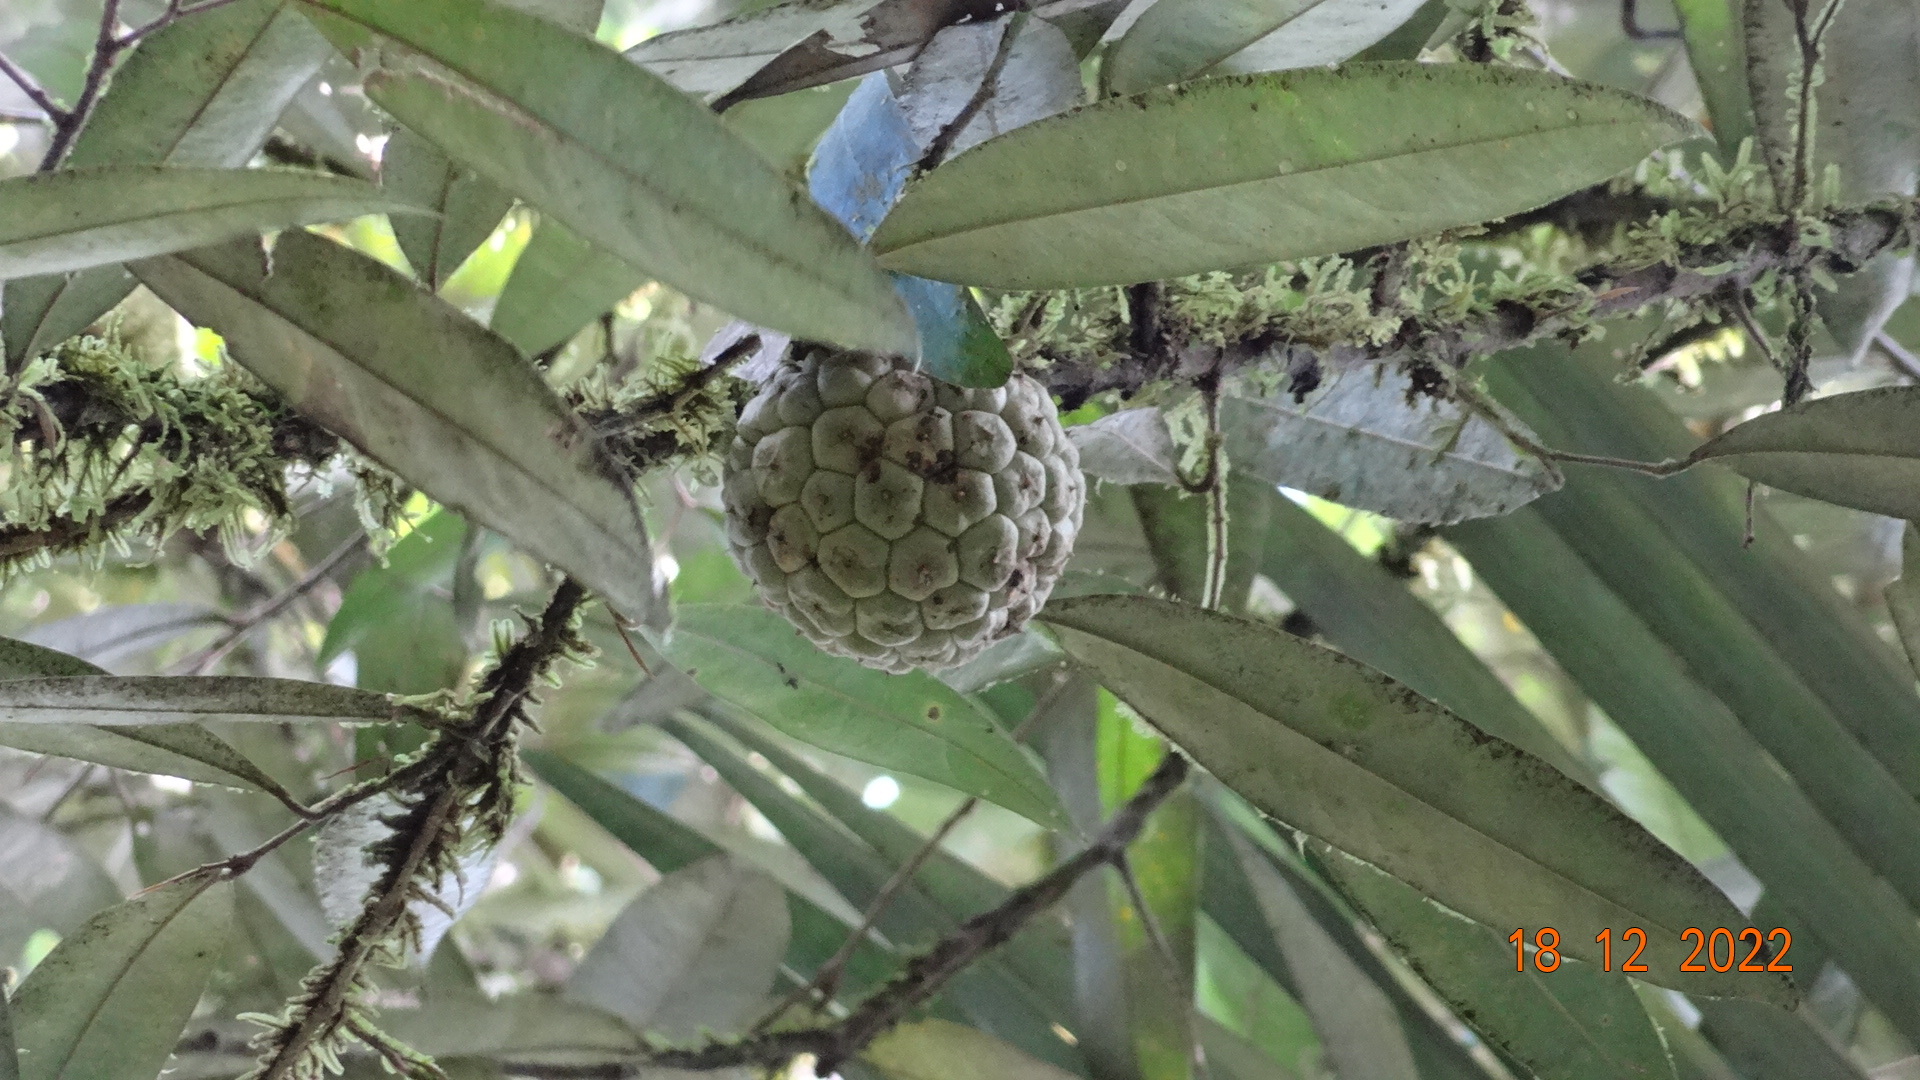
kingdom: Plantae
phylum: Tracheophyta
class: Magnoliopsida
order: Magnoliales
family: Annonaceae
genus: Duguetia
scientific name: Duguetia odorata
